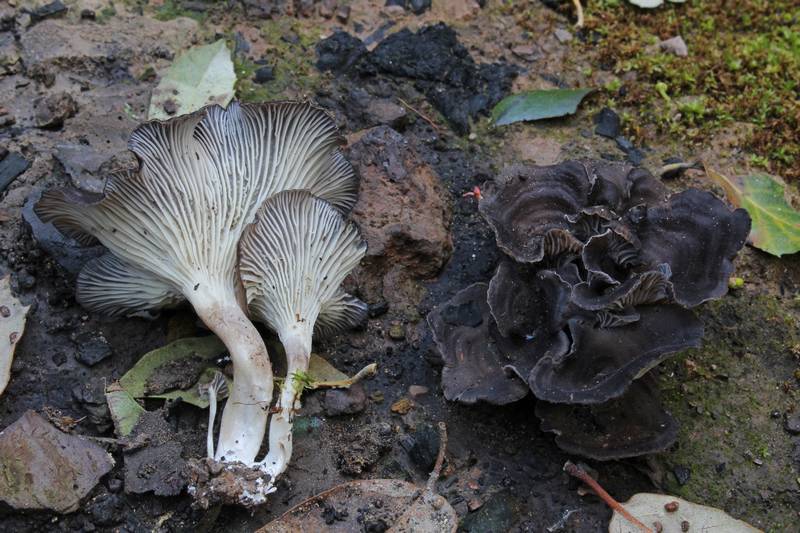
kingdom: Fungi
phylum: Basidiomycota
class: Agaricomycetes
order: Polyporales
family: Polyporaceae
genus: Faerberia
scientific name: Faerberia carbonaria
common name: Firesite funnel
